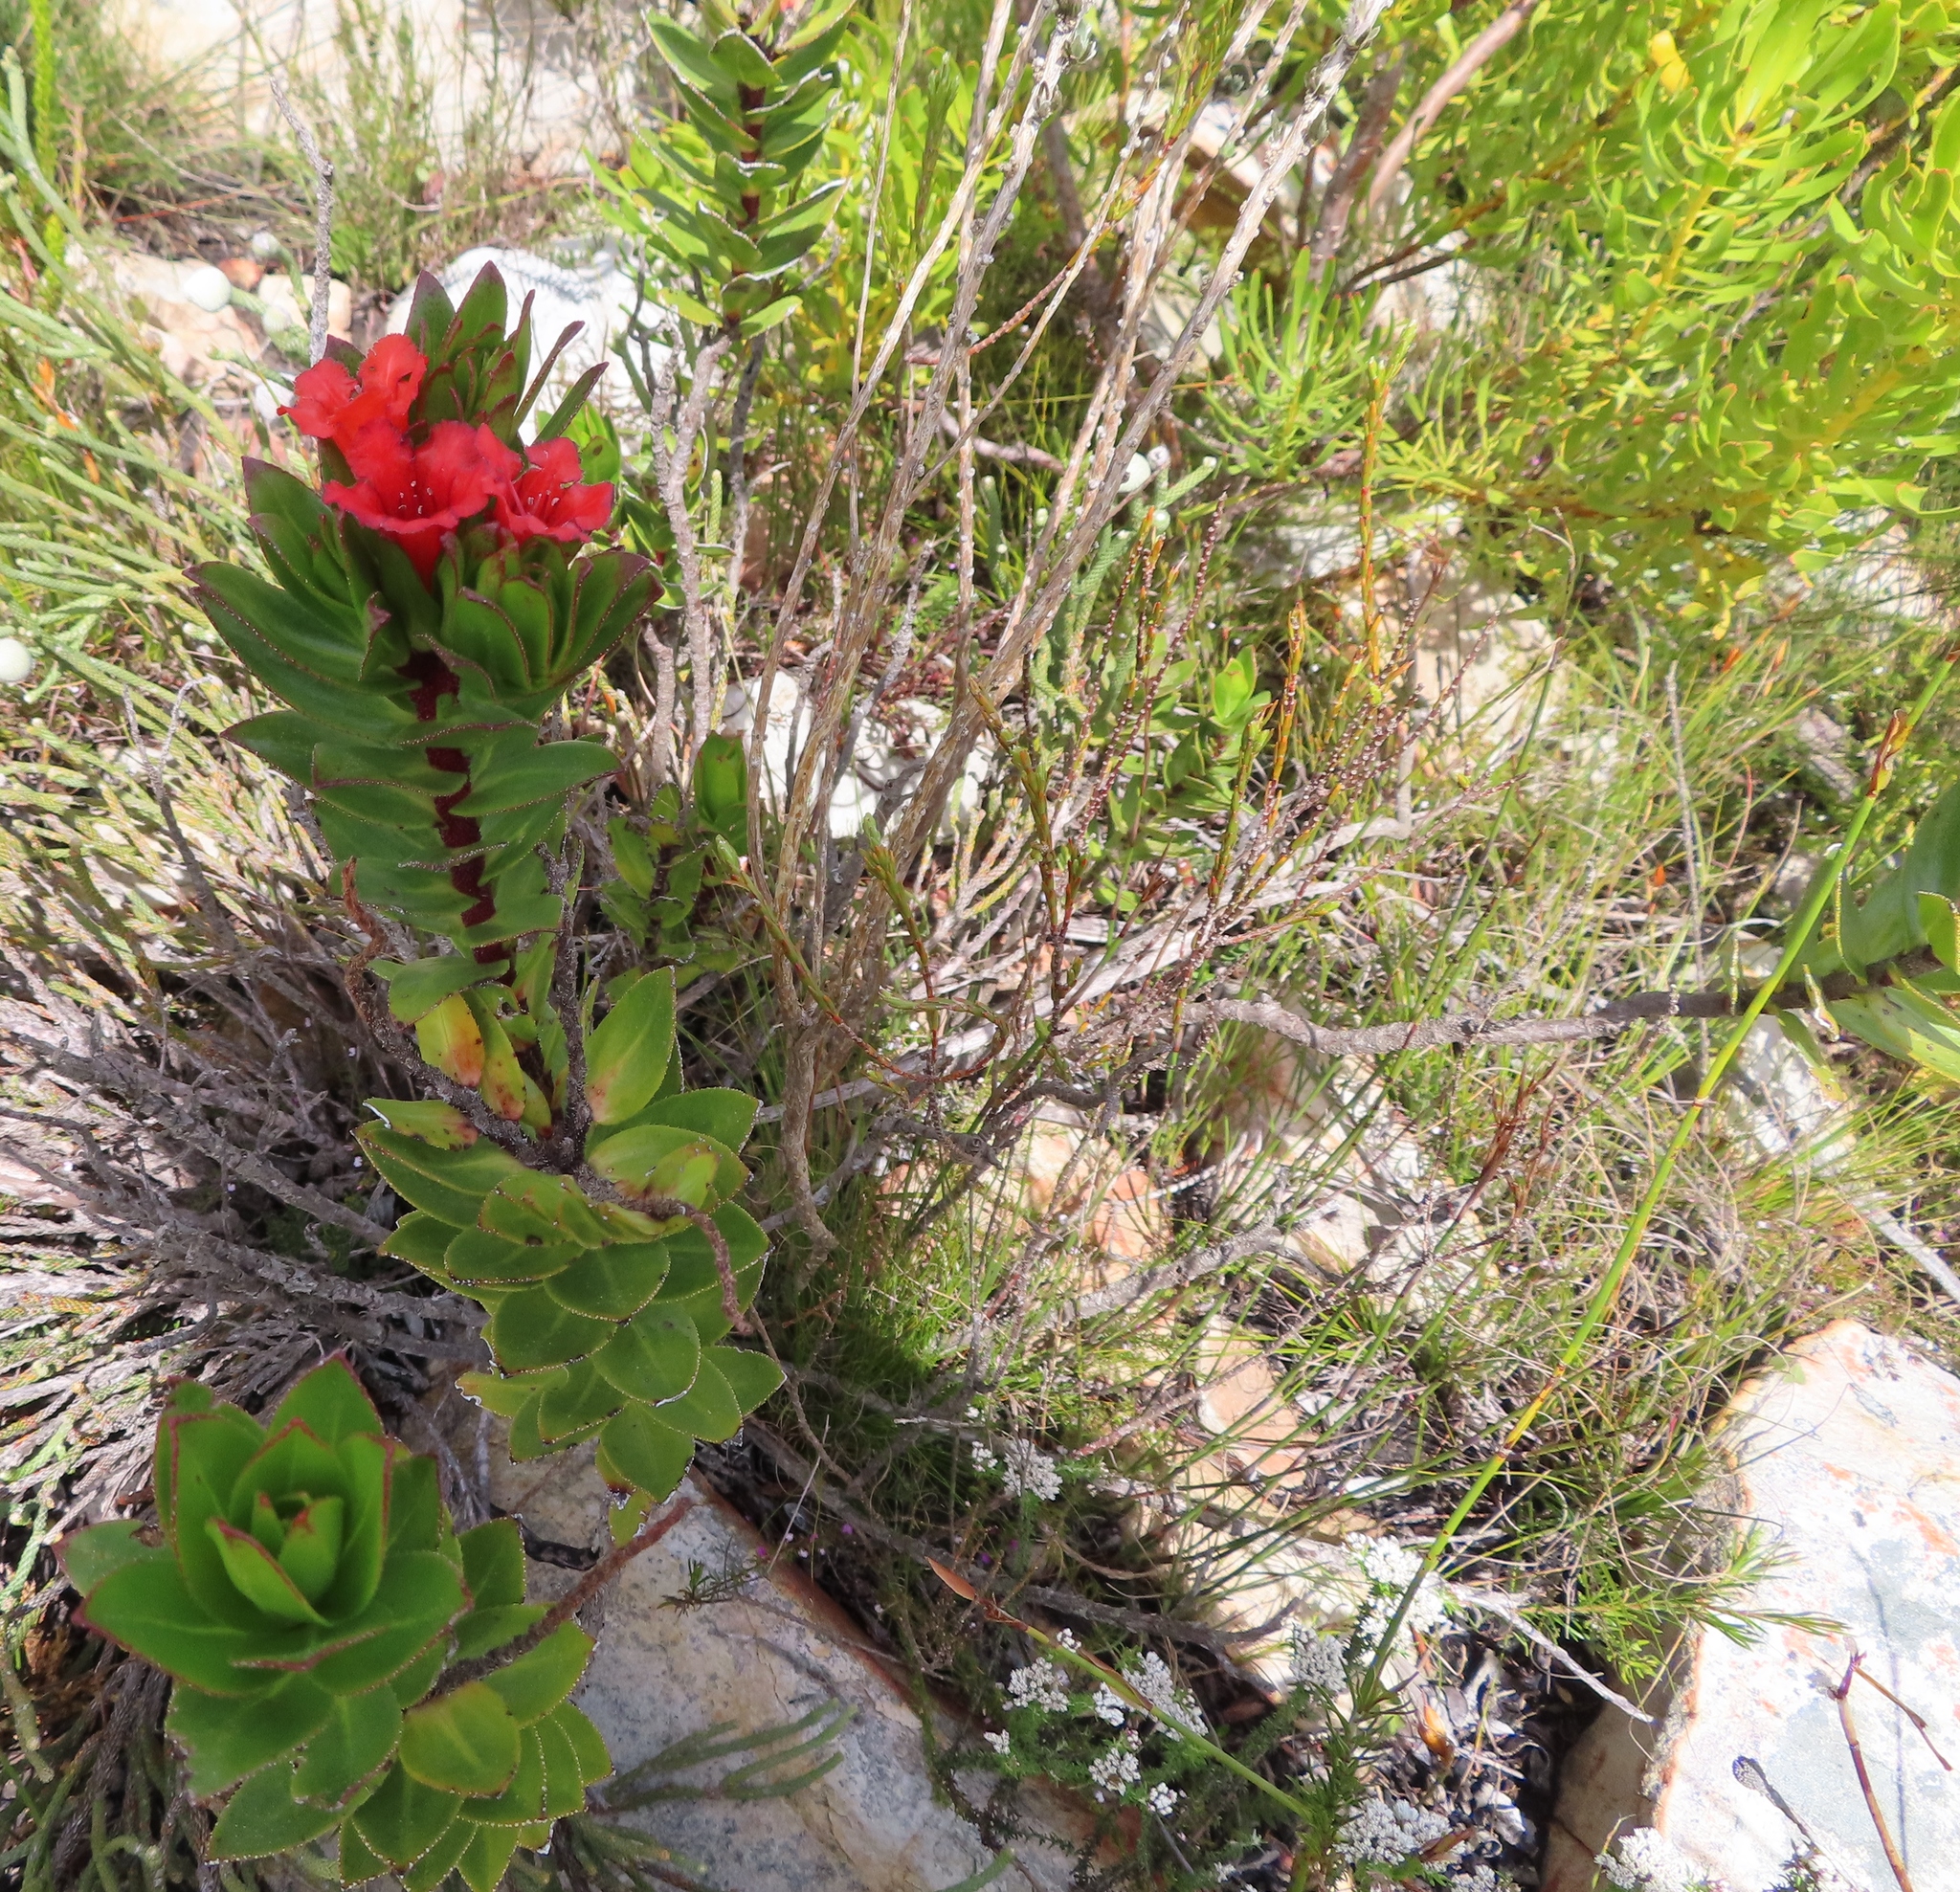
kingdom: Plantae
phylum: Tracheophyta
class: Magnoliopsida
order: Boraginales
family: Boraginaceae
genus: Lobostemon
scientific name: Lobostemon sanguineus
